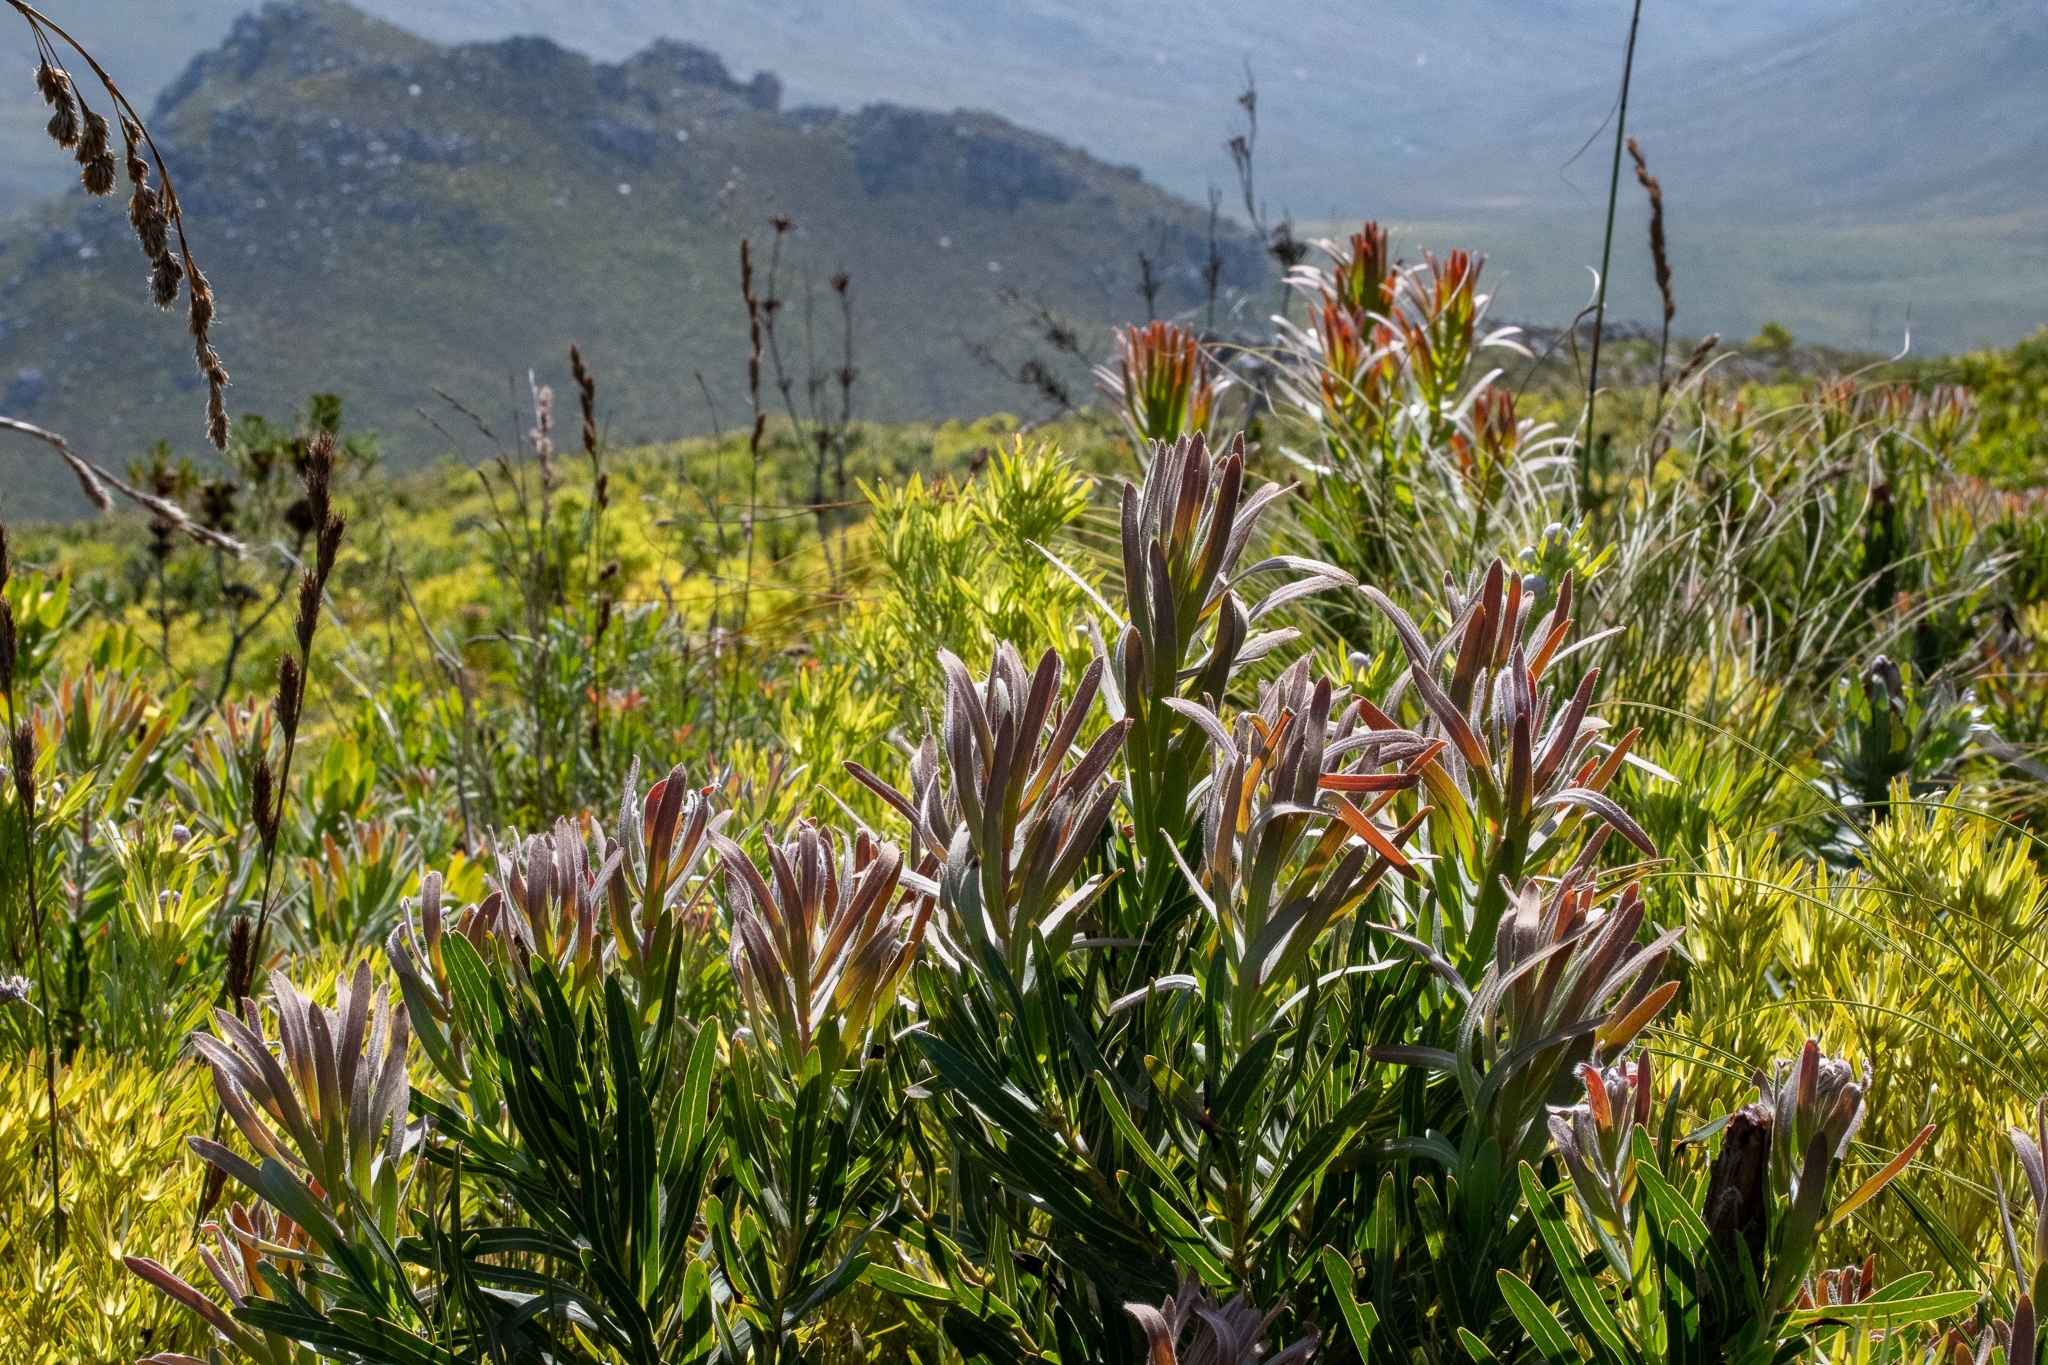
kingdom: Plantae
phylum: Tracheophyta
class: Magnoliopsida
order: Proteales
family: Proteaceae
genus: Protea
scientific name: Protea coronata
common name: Green sugarbush
